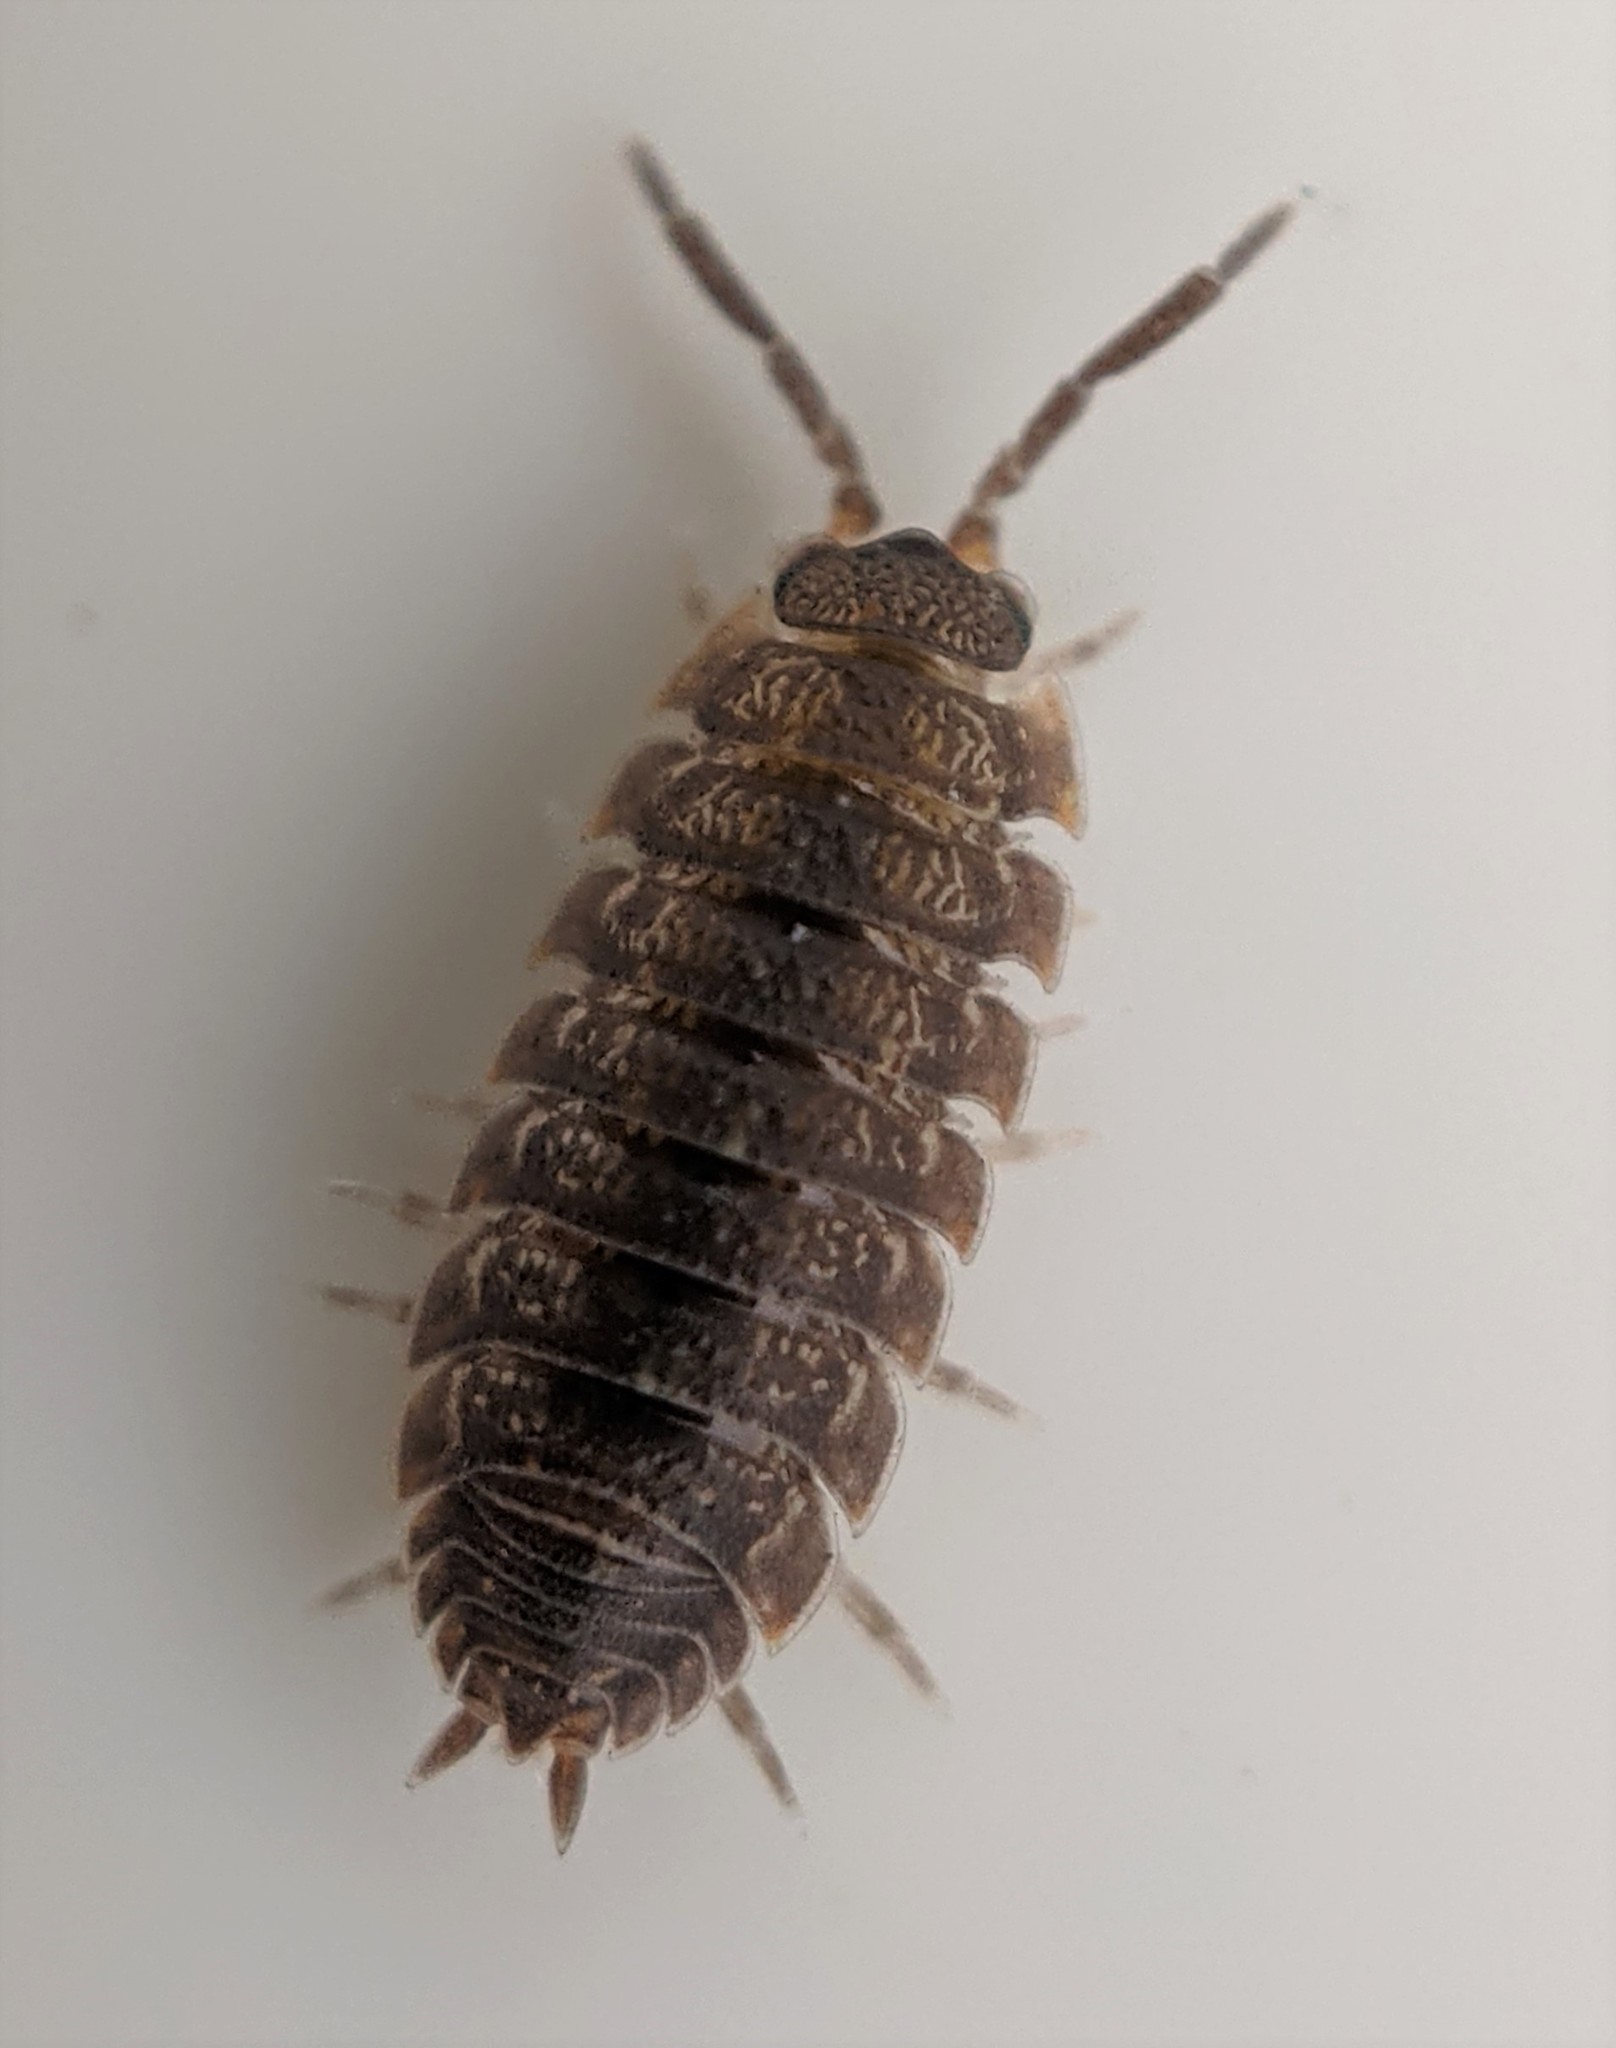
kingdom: Animalia
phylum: Arthropoda
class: Malacostraca
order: Isopoda
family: Porcellionidae
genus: Porcellio
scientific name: Porcellio scaber
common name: Common rough woodlouse
